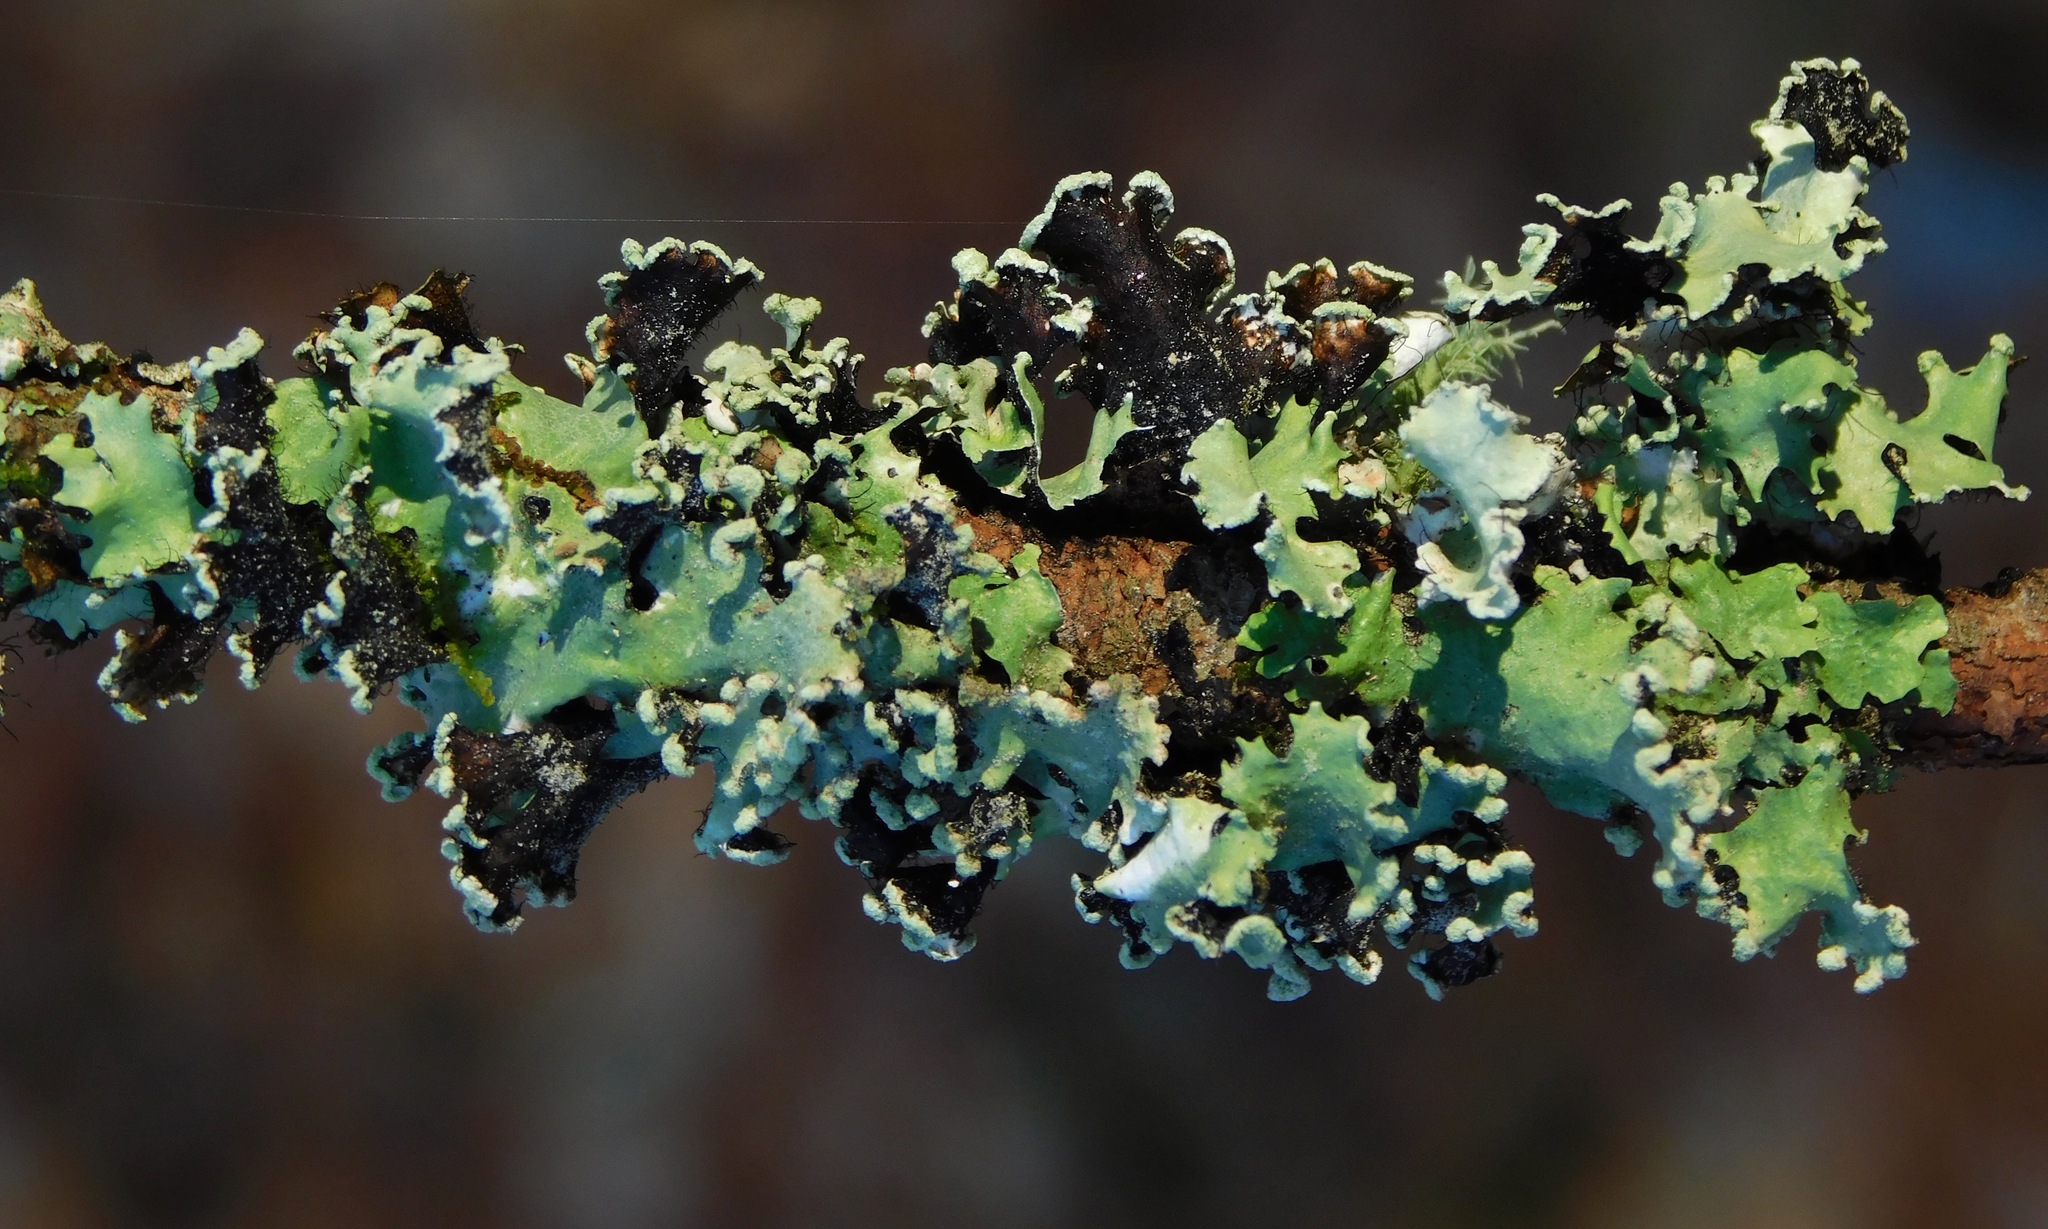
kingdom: Fungi
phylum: Ascomycota
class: Lecanoromycetes
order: Lecanorales
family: Parmeliaceae
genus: Parmotrema
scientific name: Parmotrema reticulatum
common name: Black sheet lichen
